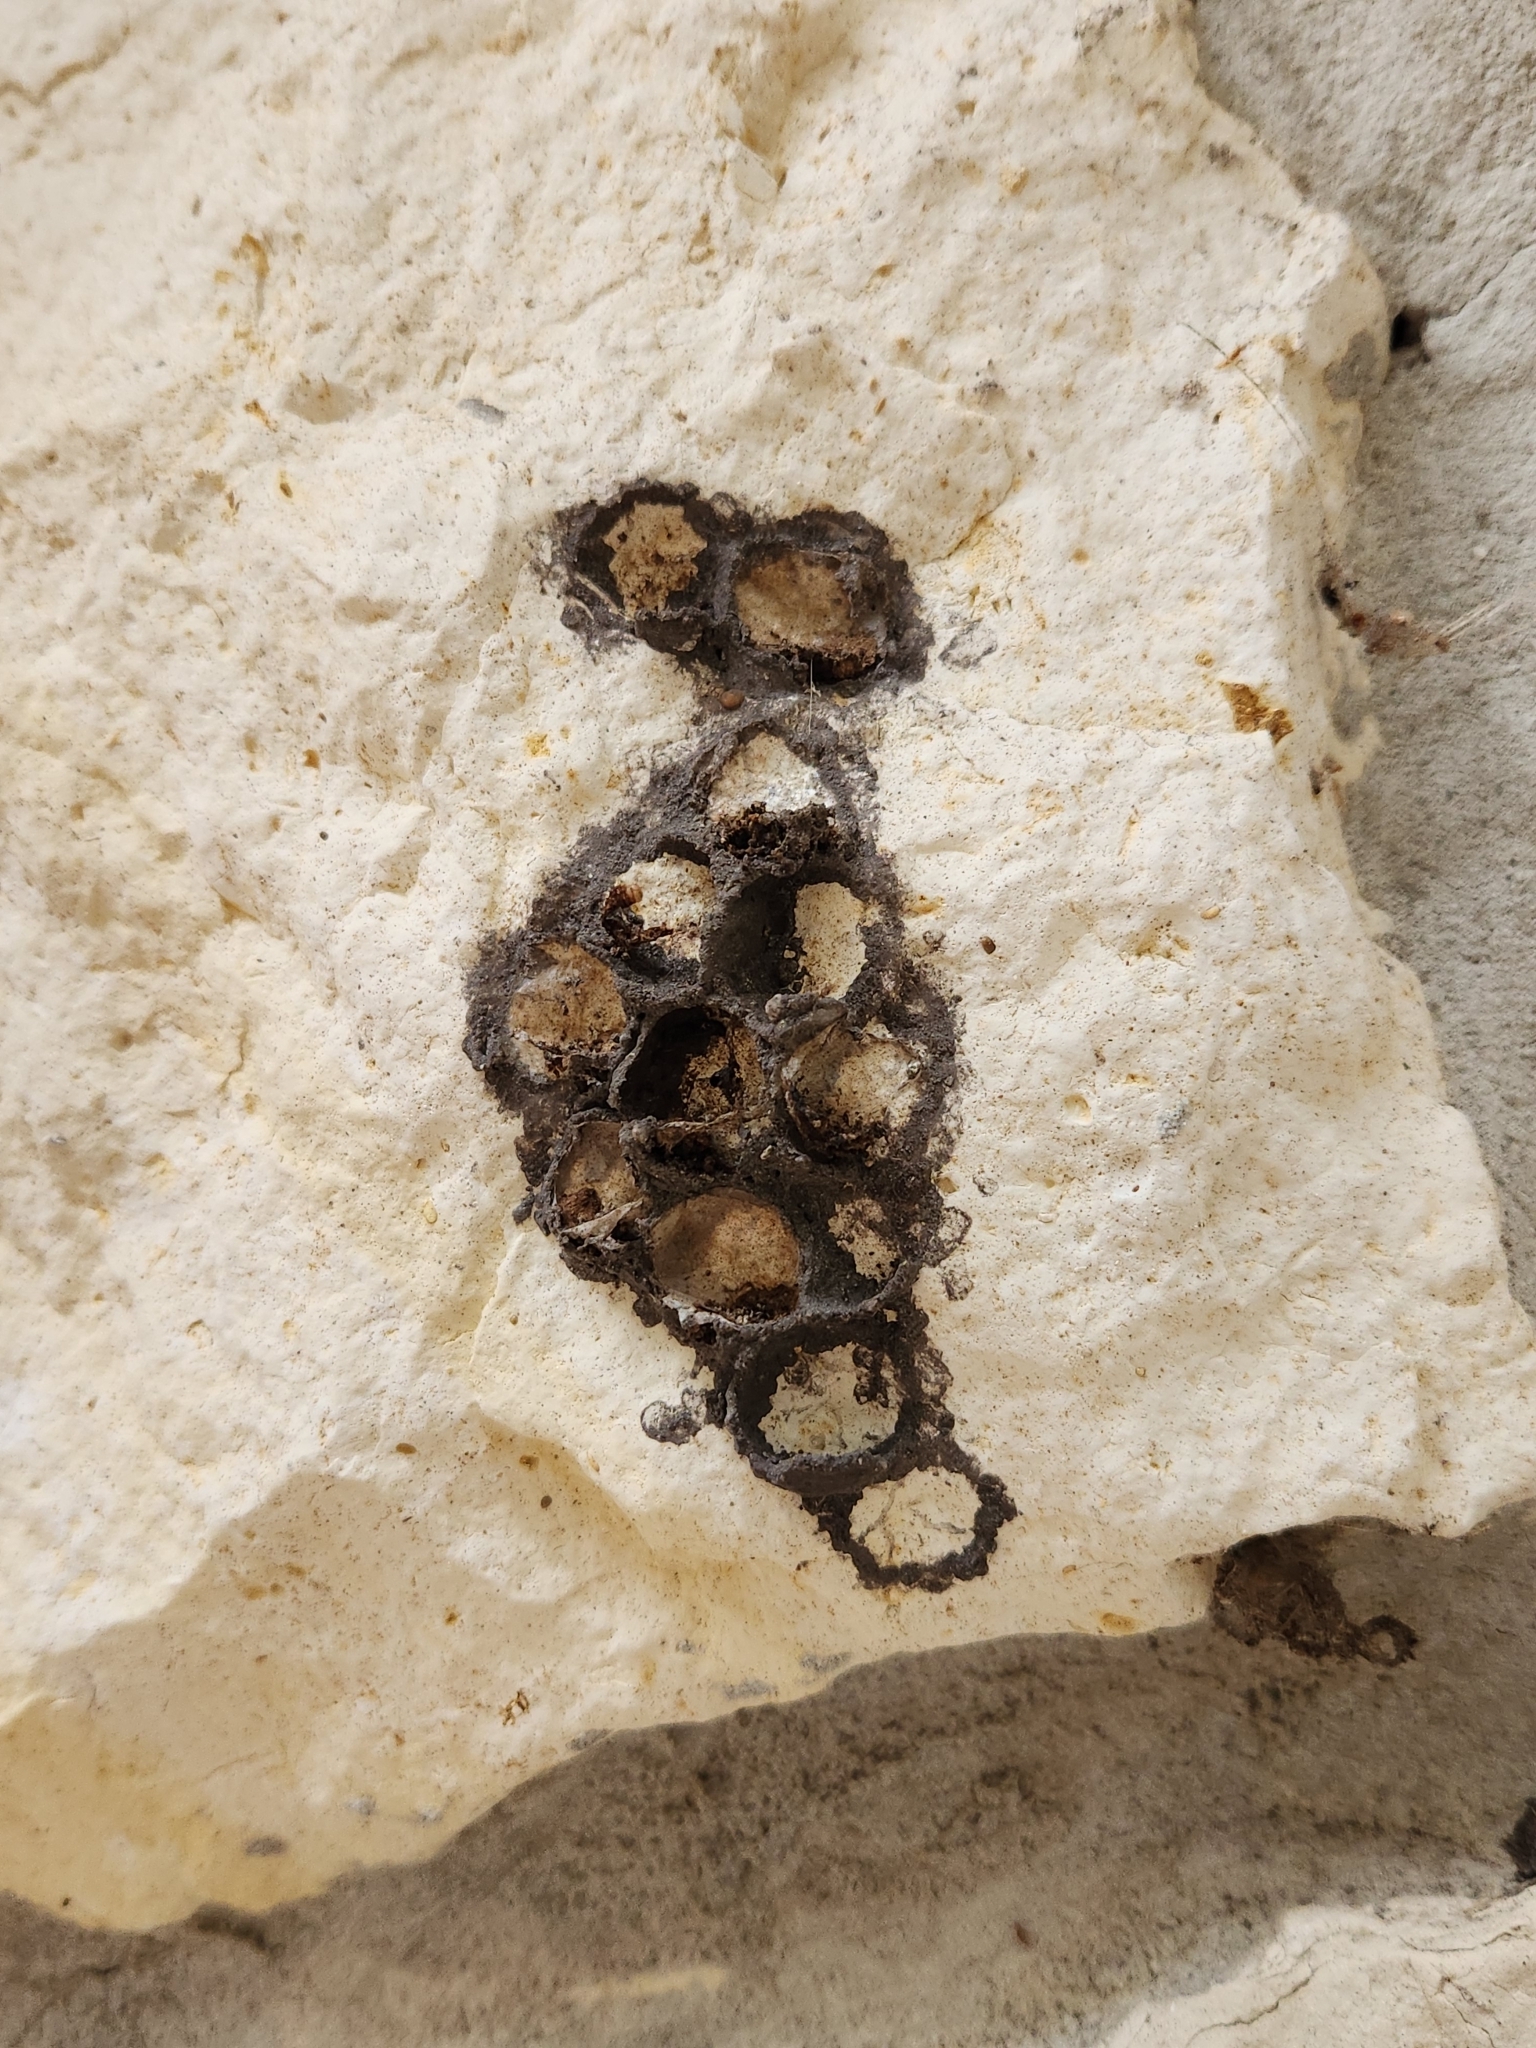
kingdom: Animalia
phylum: Arthropoda
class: Insecta
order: Hymenoptera
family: Eumenidae
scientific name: Eumenidae
